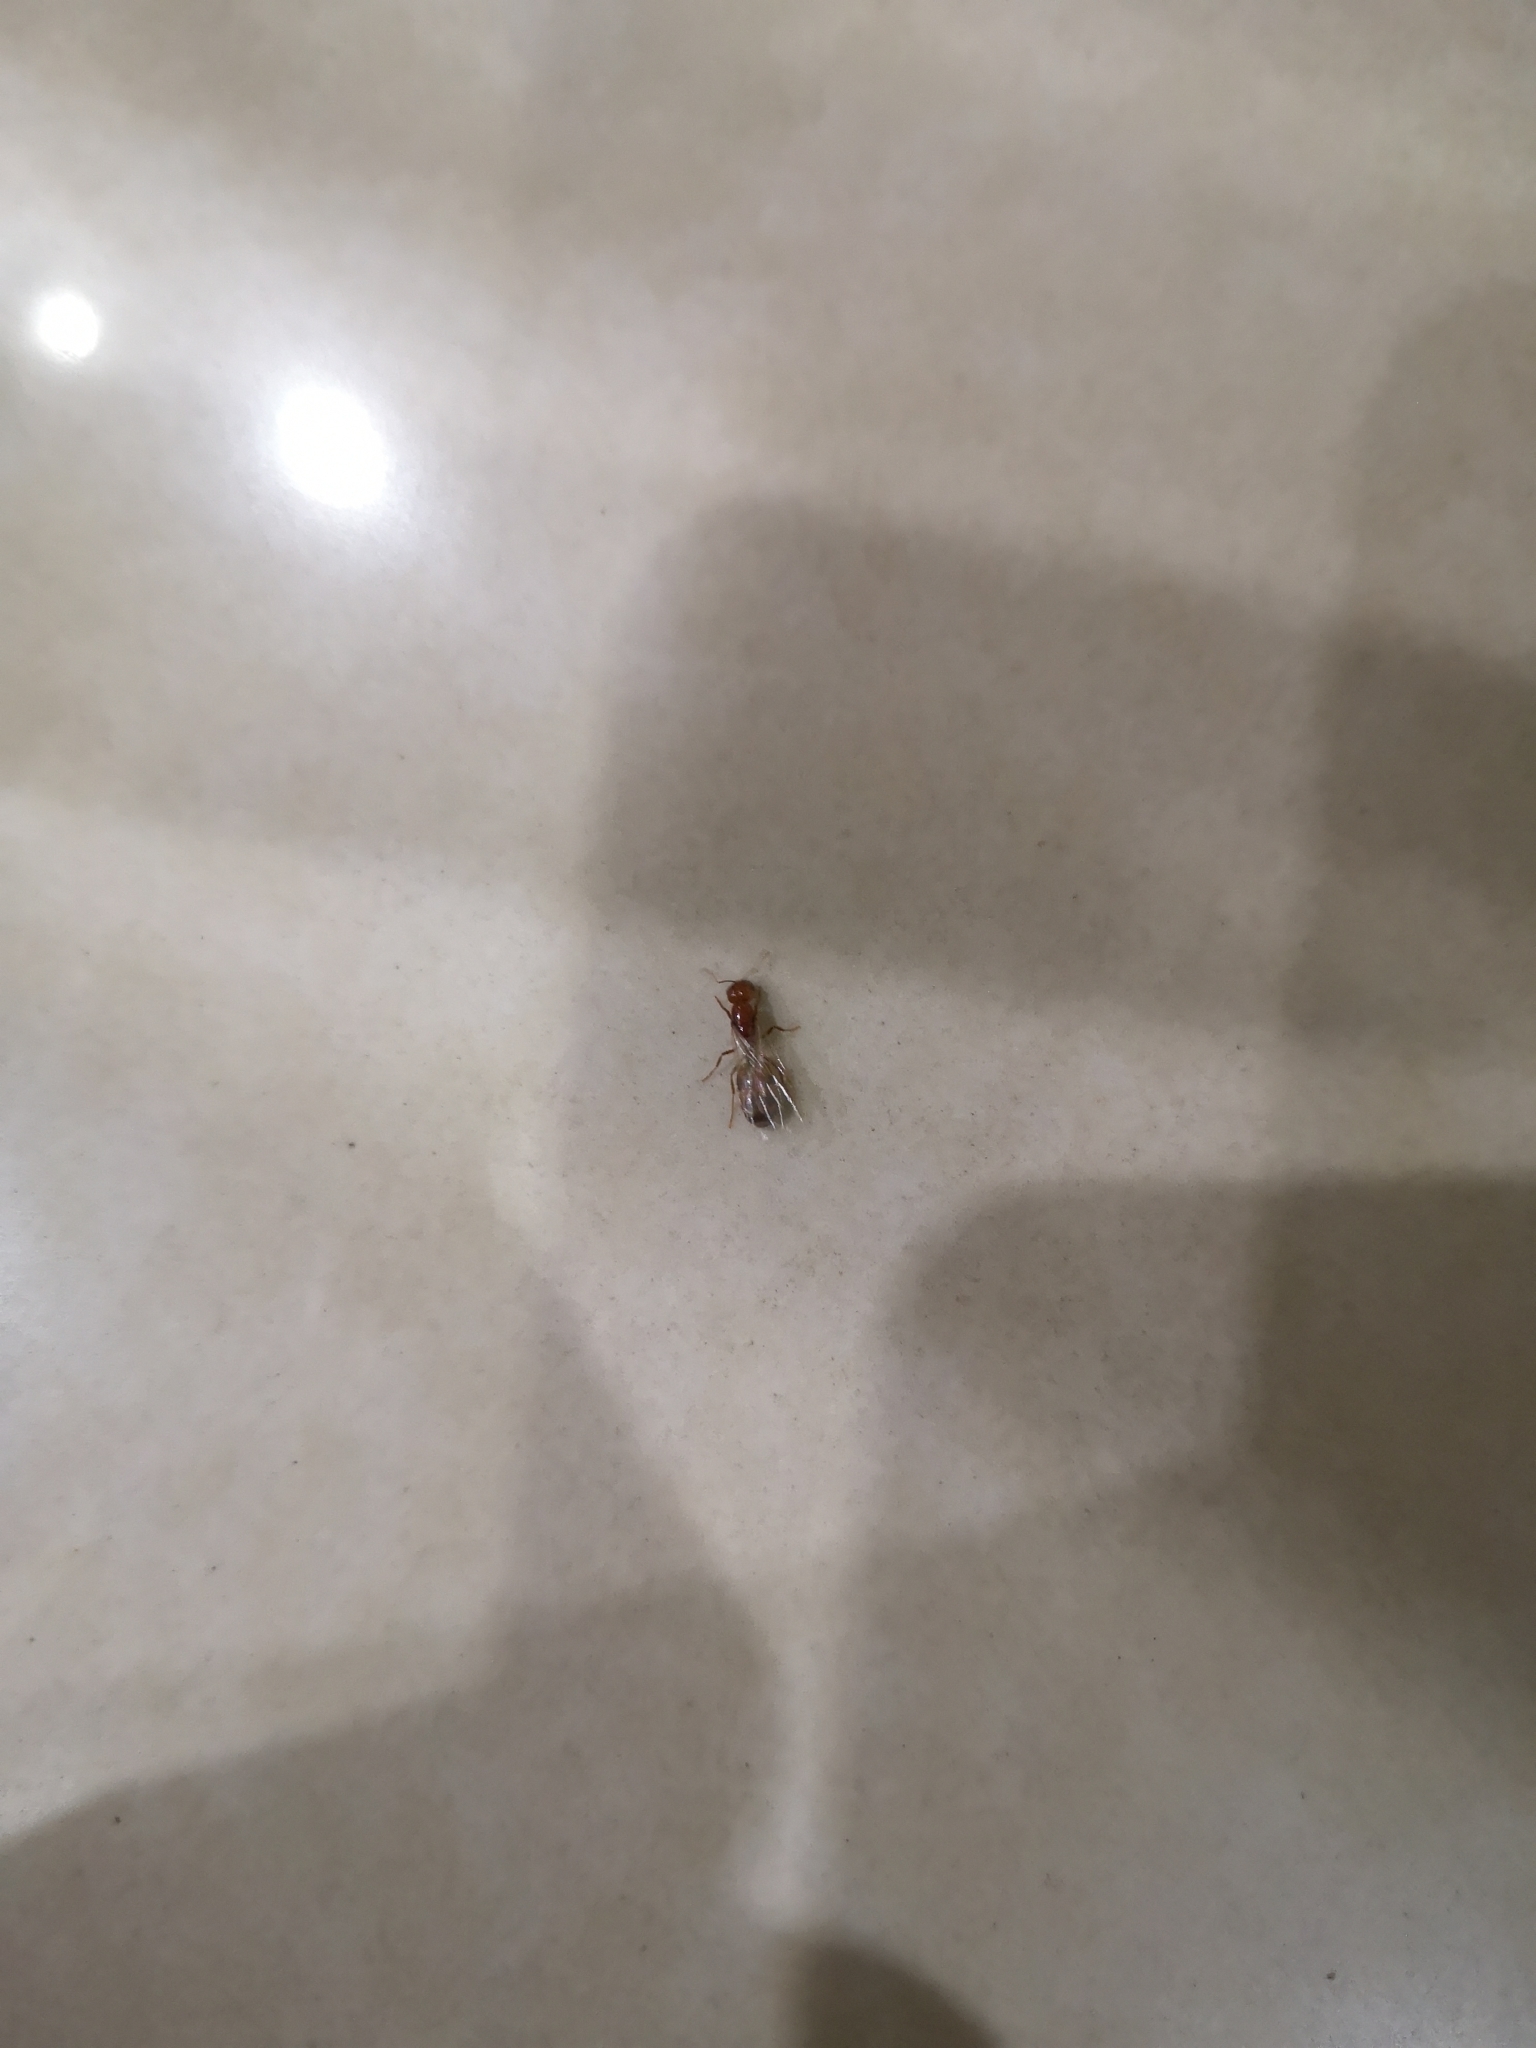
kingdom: Animalia
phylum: Arthropoda
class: Insecta
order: Hymenoptera
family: Formicidae
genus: Solenopsis
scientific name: Solenopsis geminata
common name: Tropical fire ant
